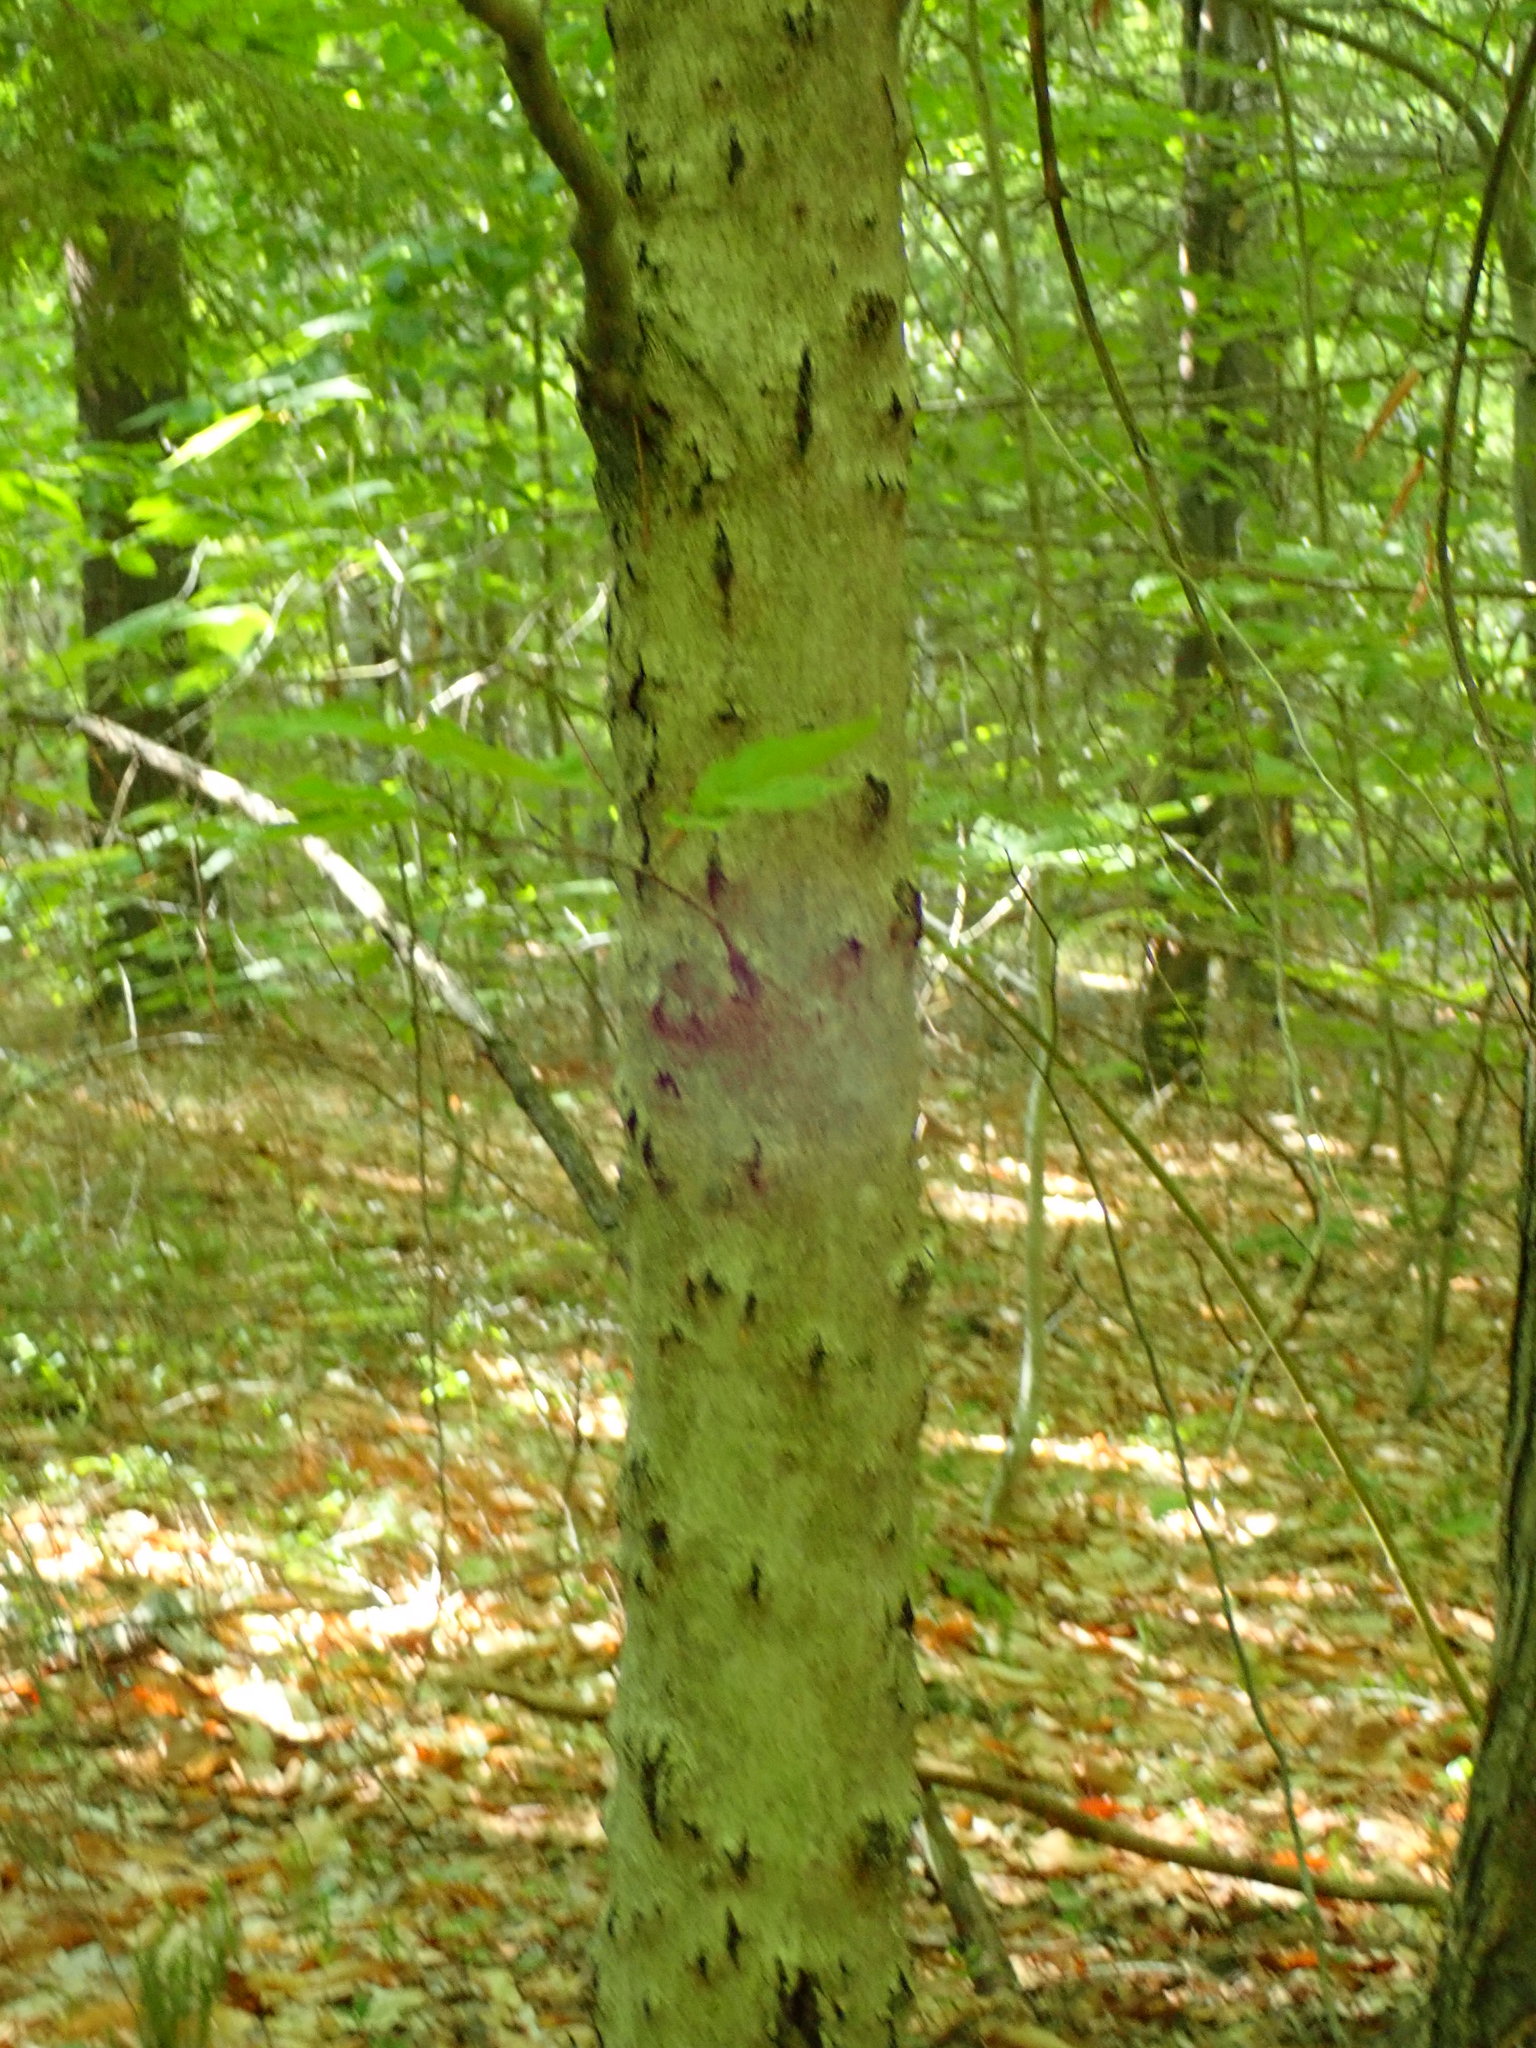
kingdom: Fungi
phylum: Ascomycota
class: Sordariomycetes
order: Hypocreales
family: Nectriaceae
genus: Neonectria
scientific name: Neonectria faginata
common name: Beech bark canker
